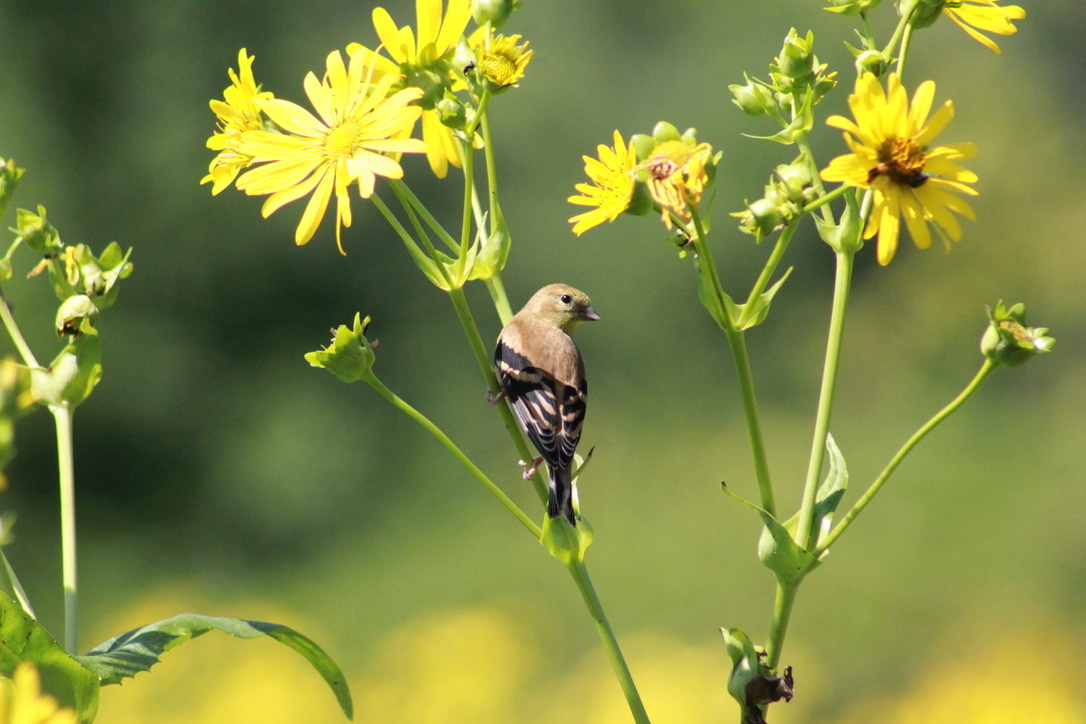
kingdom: Animalia
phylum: Chordata
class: Aves
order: Passeriformes
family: Fringillidae
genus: Spinus
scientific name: Spinus tristis
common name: American goldfinch
